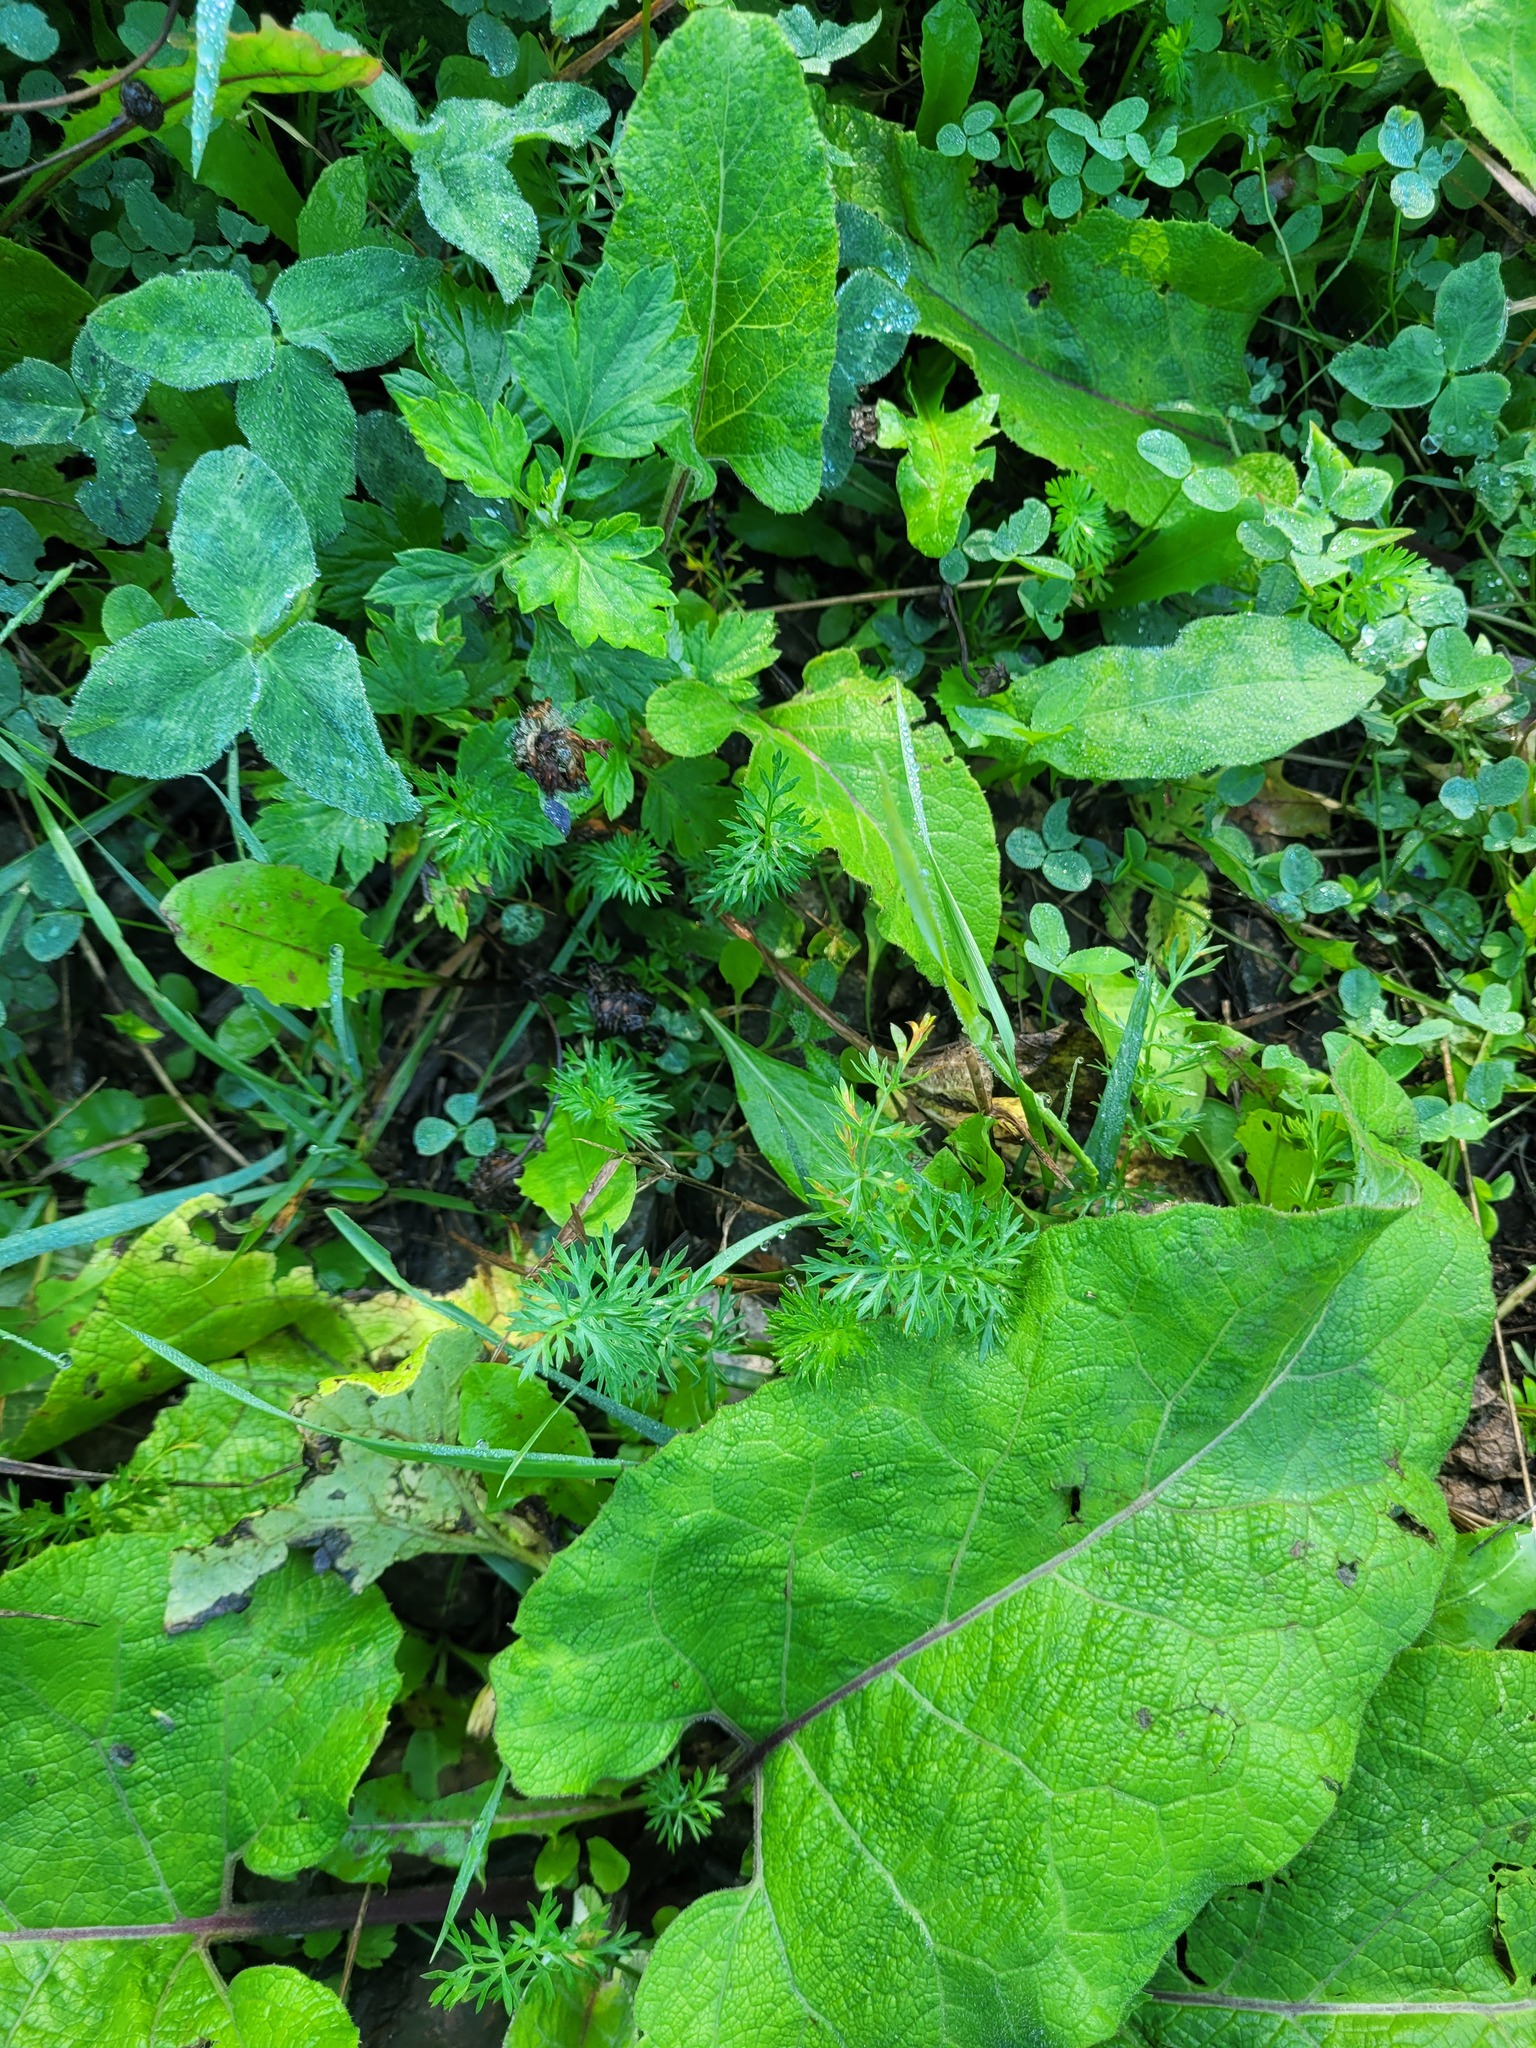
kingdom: Plantae
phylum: Tracheophyta
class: Magnoliopsida
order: Apiales
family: Apiaceae
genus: Carum
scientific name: Carum carvi
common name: Caraway
